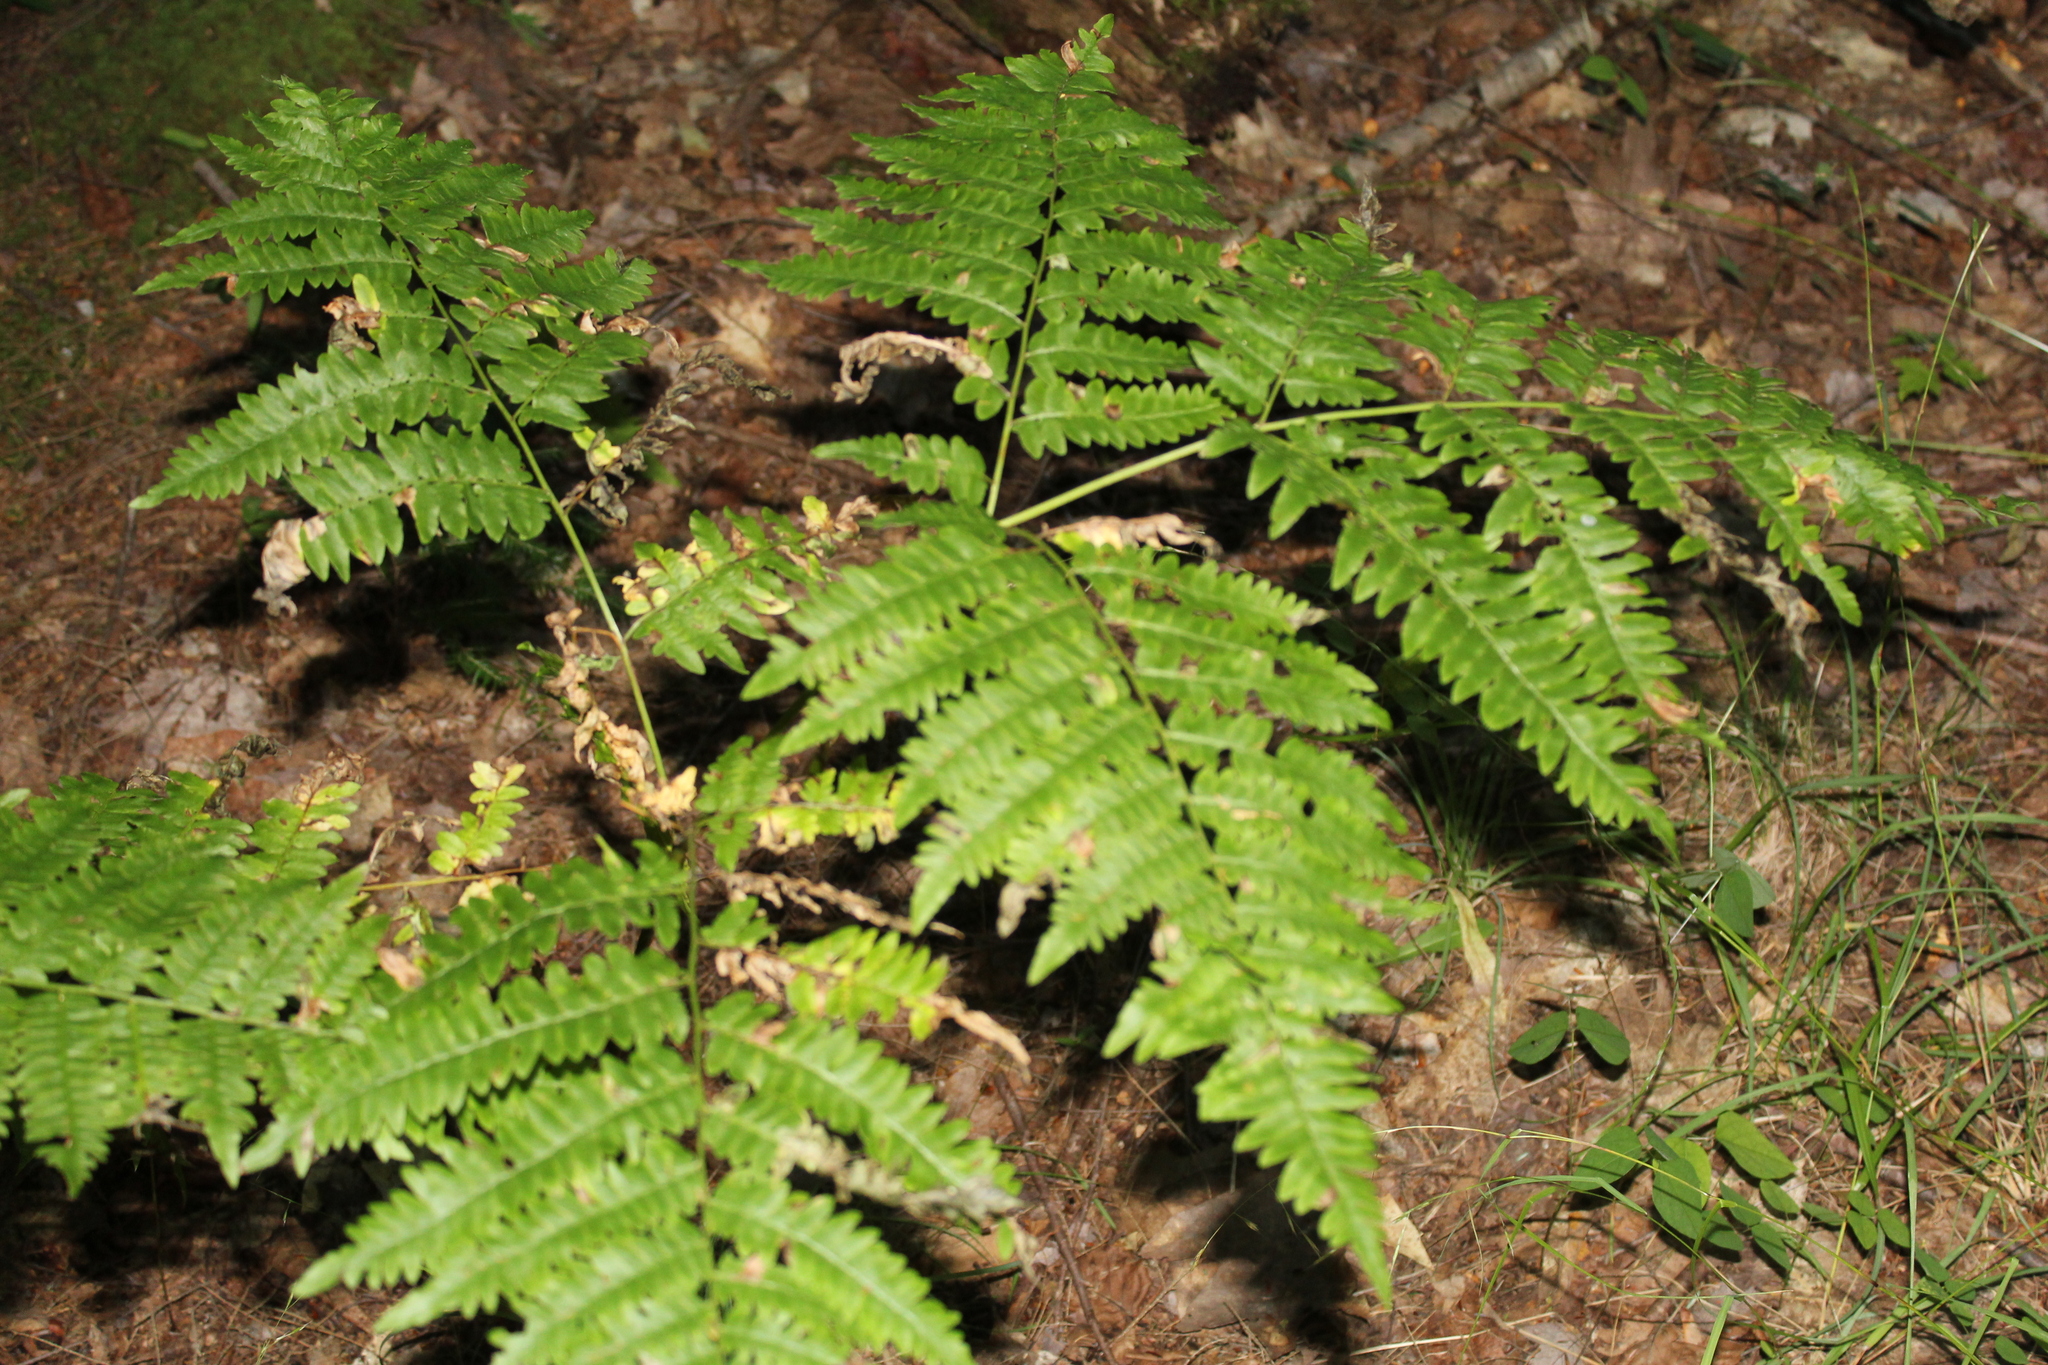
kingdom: Plantae
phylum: Tracheophyta
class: Polypodiopsida
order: Polypodiales
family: Dennstaedtiaceae
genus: Pteridium
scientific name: Pteridium aquilinum
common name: Bracken
